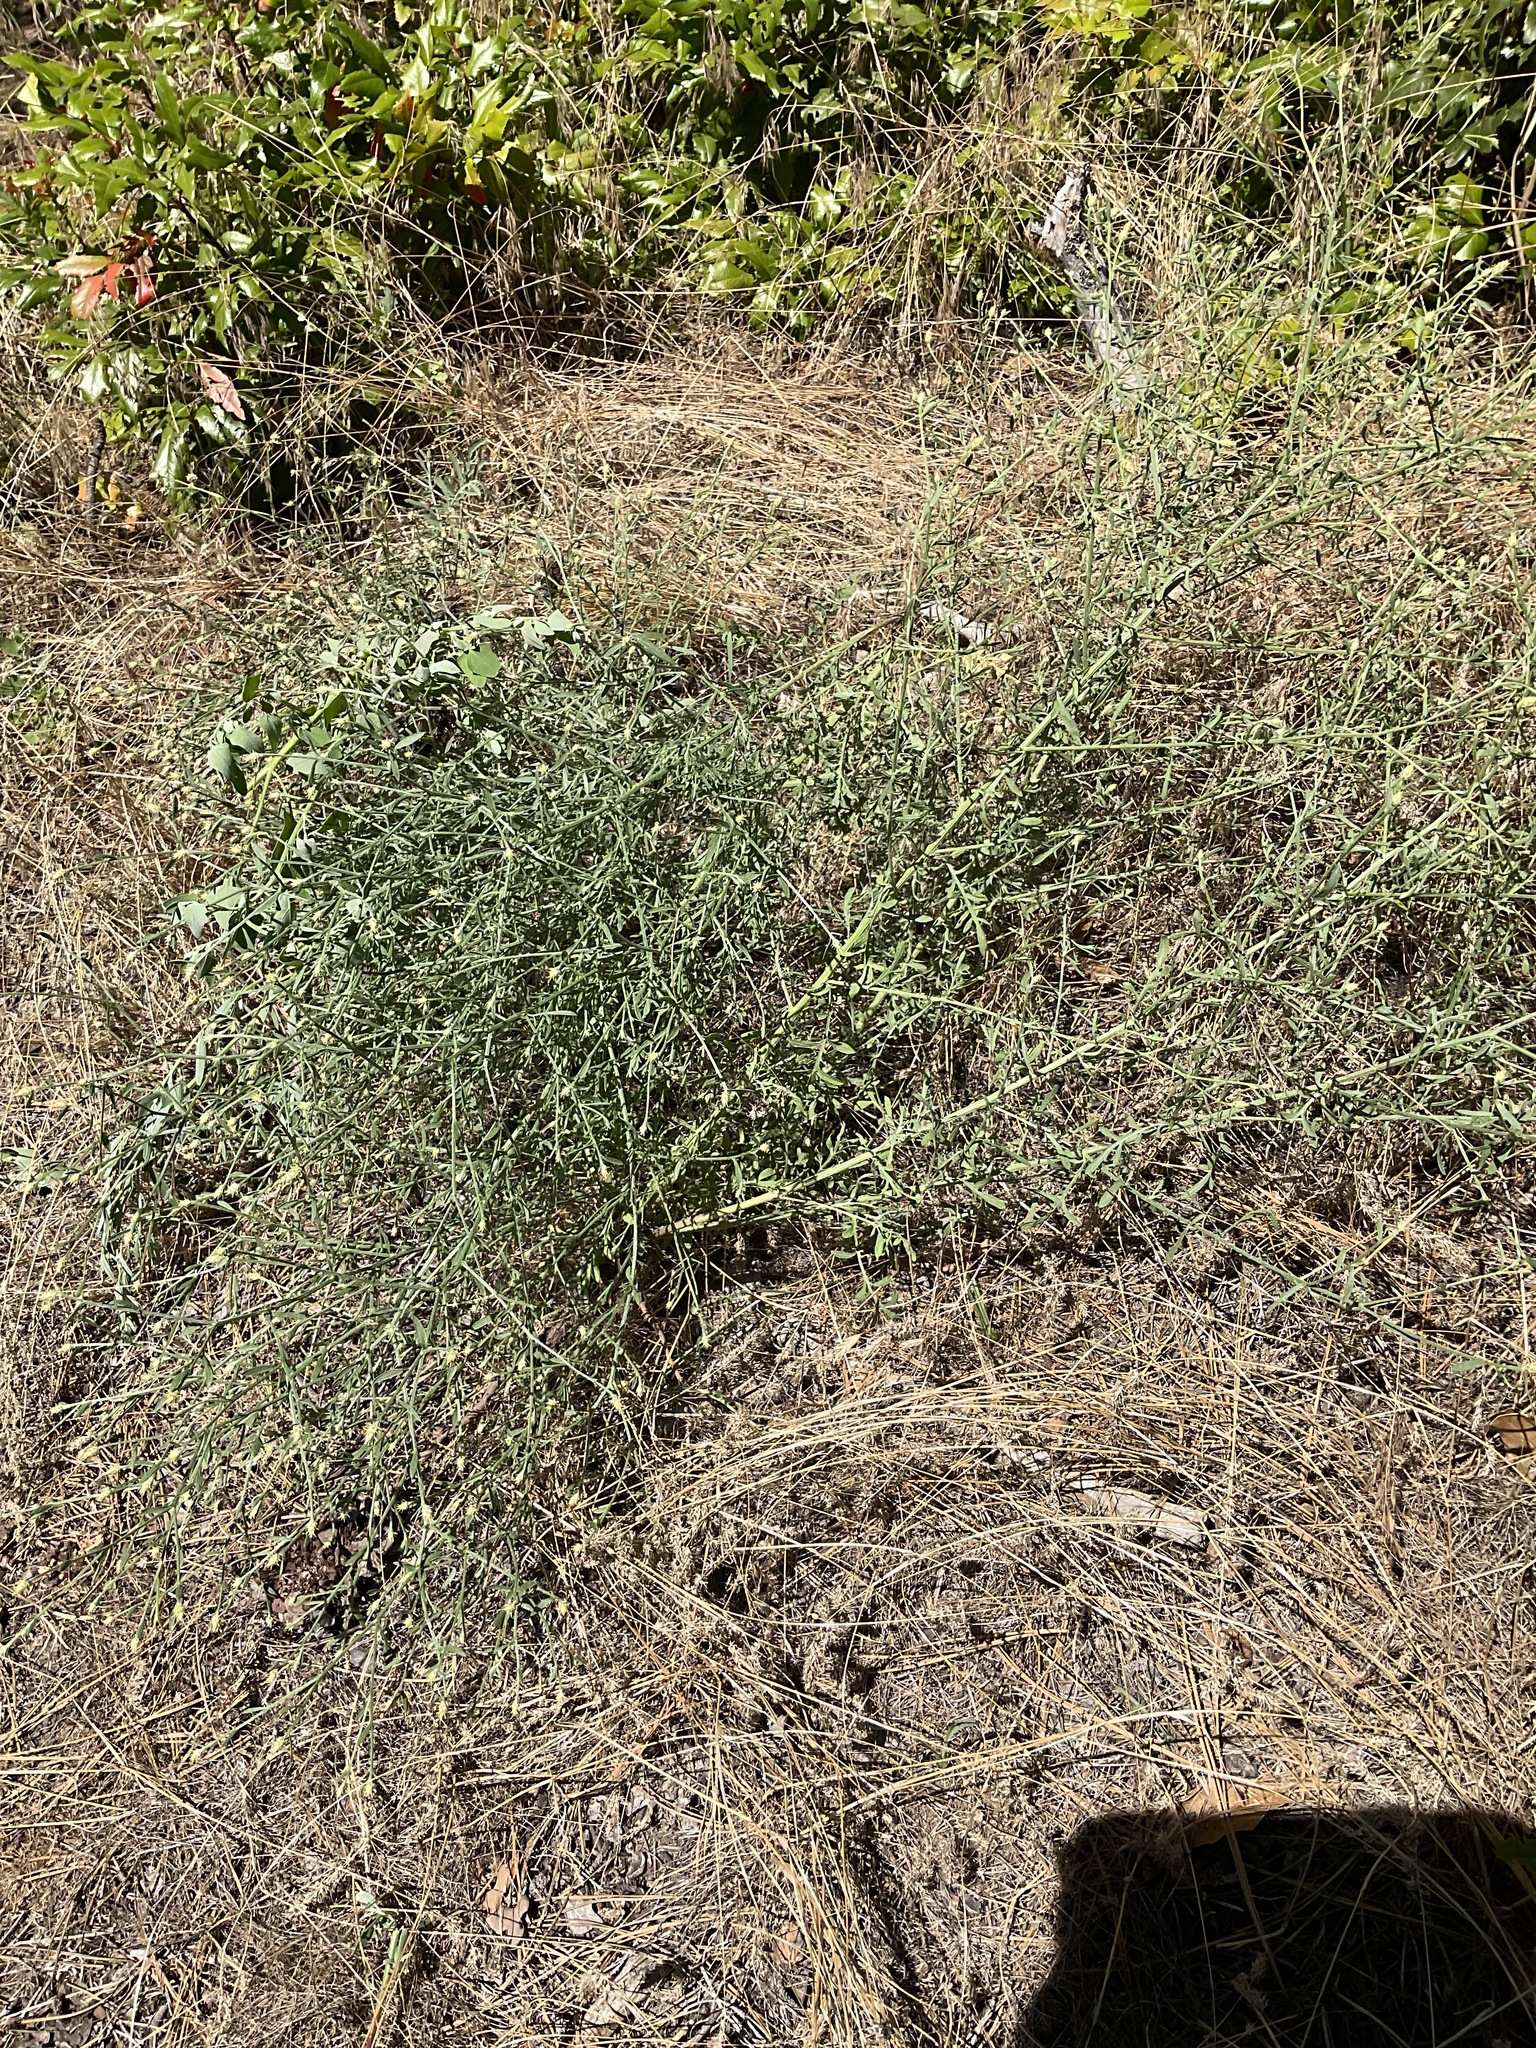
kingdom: Plantae
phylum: Tracheophyta
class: Magnoliopsida
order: Asterales
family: Asteraceae
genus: Centaurea
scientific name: Centaurea diffusa
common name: Diffuse knapweed
